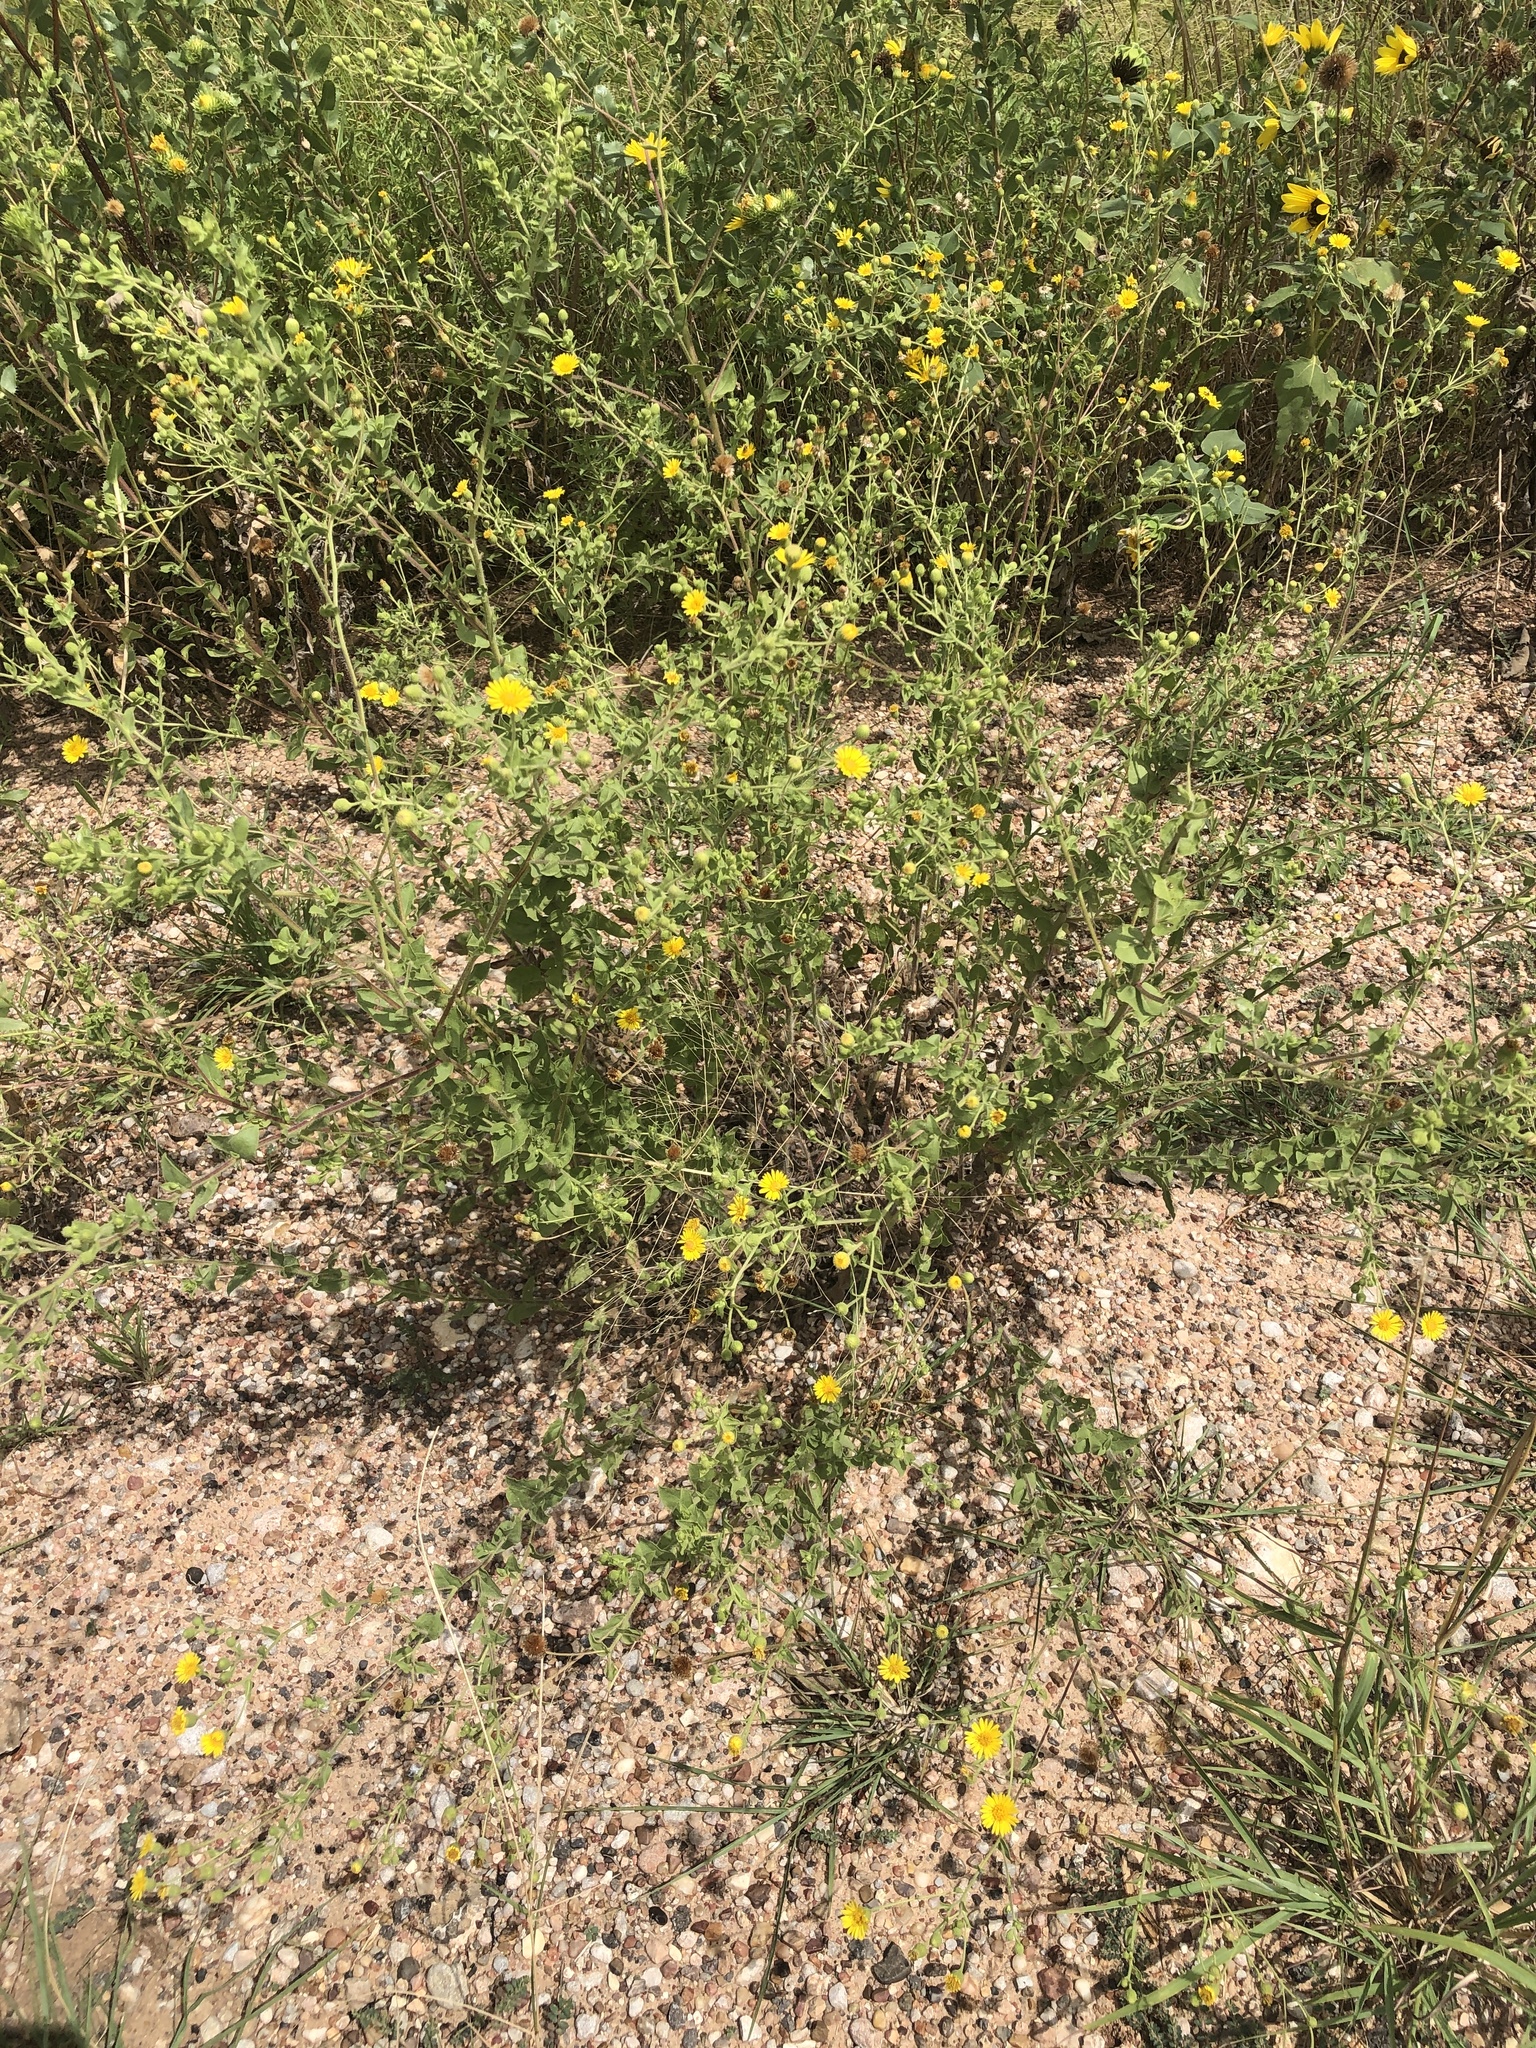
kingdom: Plantae
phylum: Tracheophyta
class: Magnoliopsida
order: Asterales
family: Asteraceae
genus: Heterotheca
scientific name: Heterotheca subaxillaris
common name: Camphorweed
